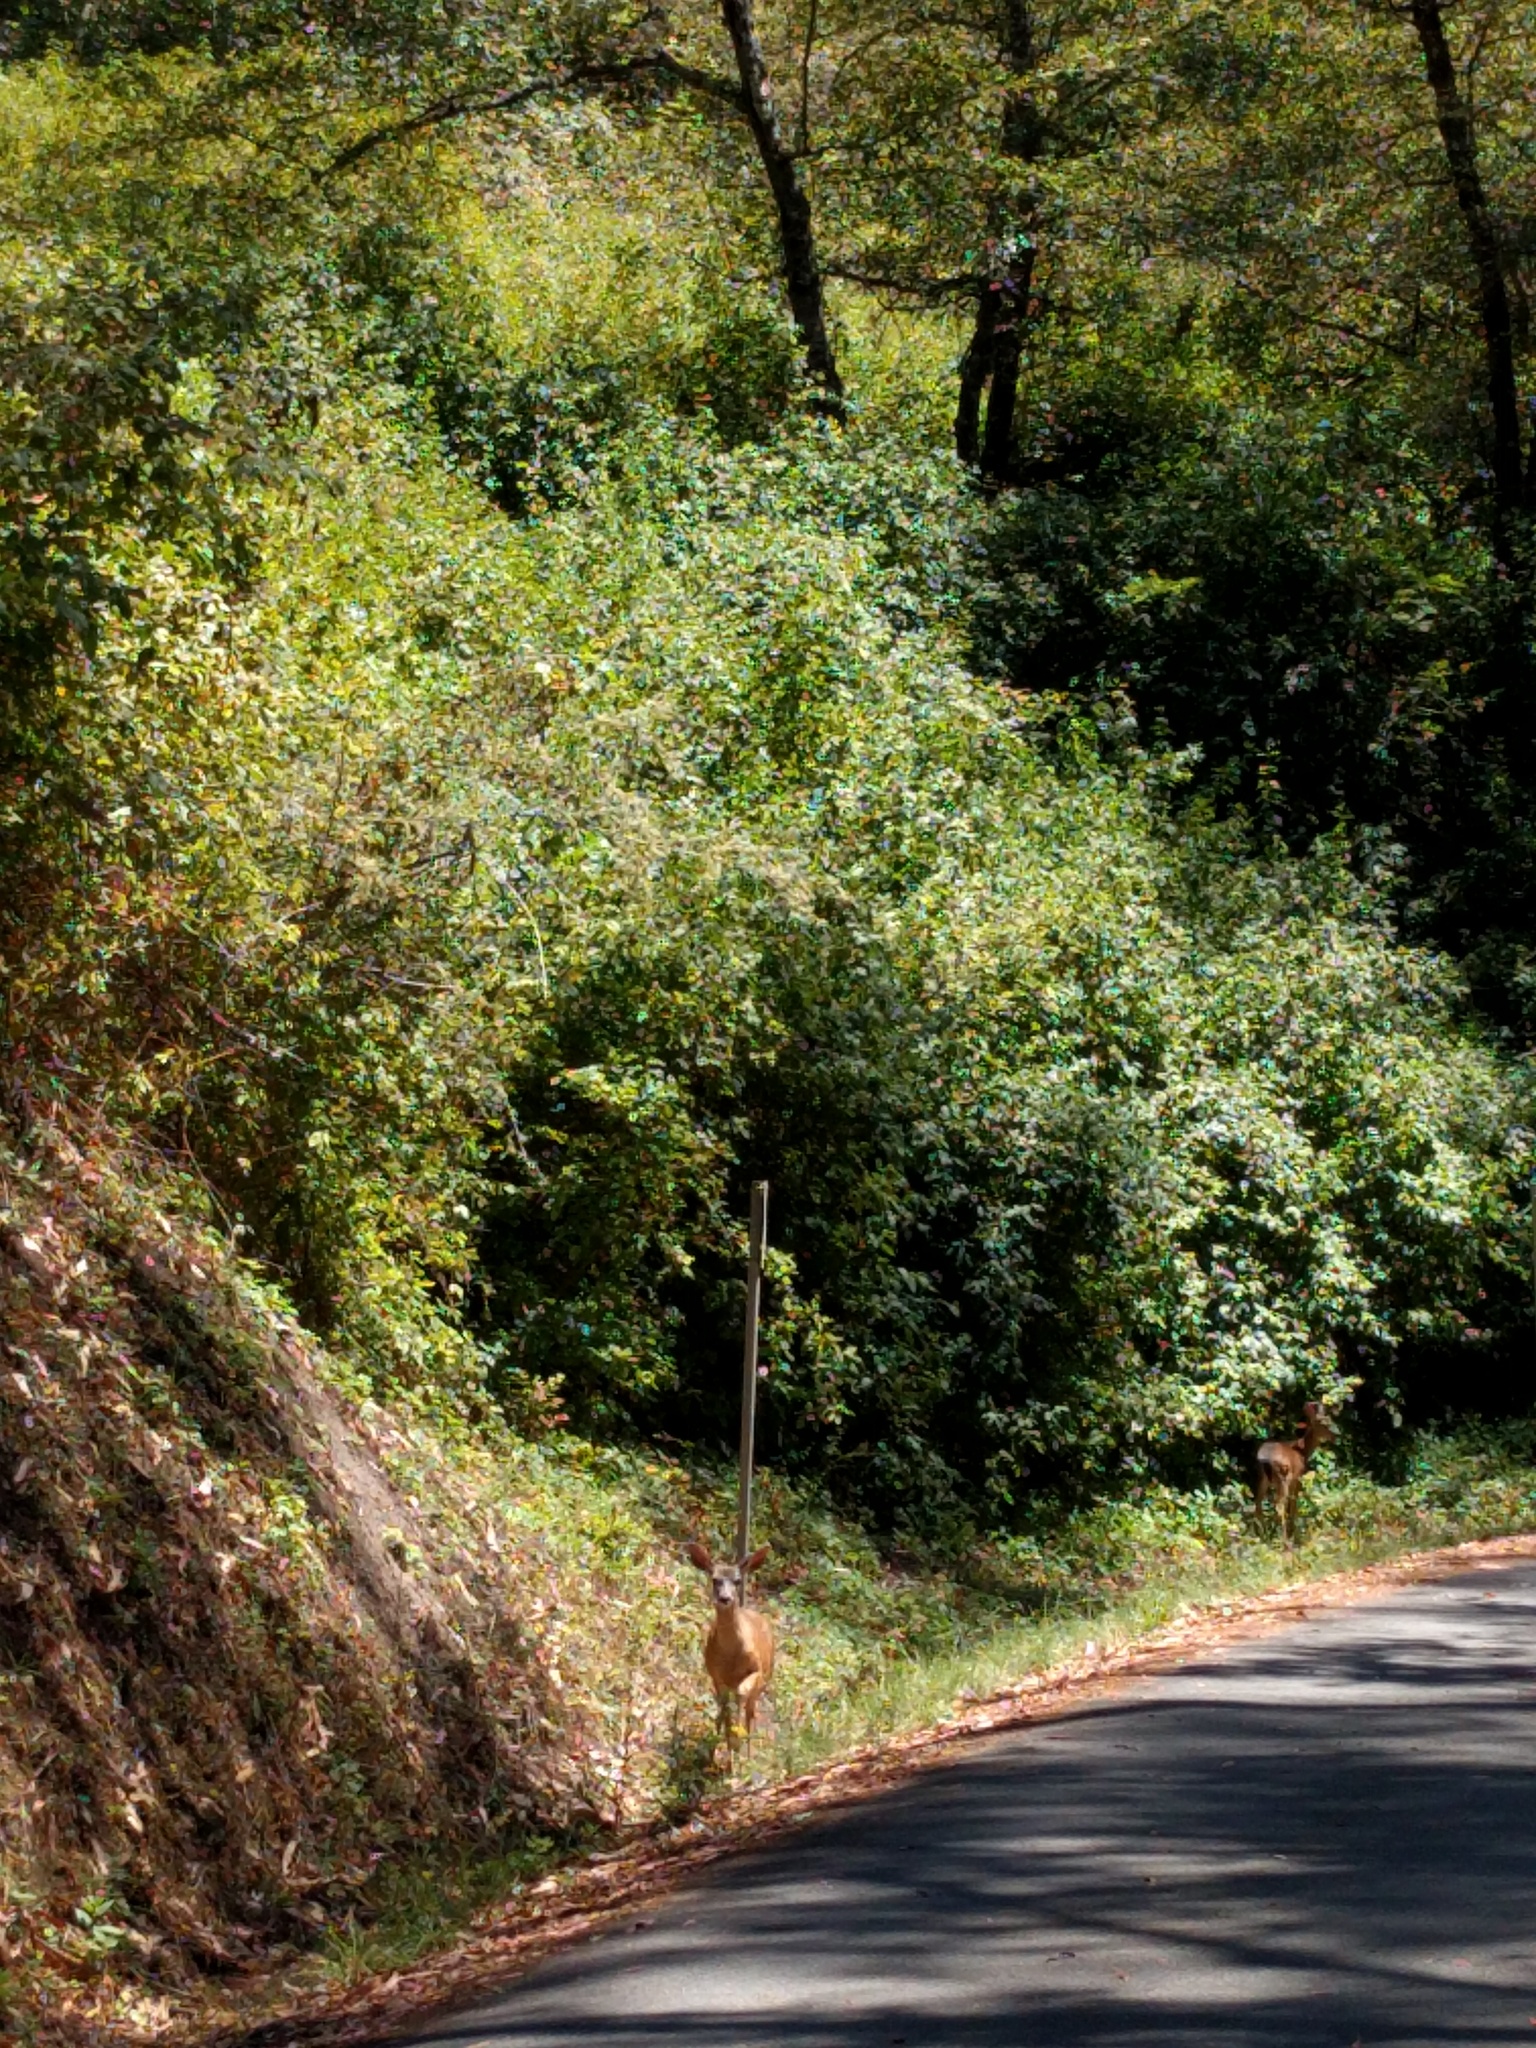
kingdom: Animalia
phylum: Chordata
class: Mammalia
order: Artiodactyla
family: Cervidae
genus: Odocoileus
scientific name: Odocoileus hemionus
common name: Mule deer
